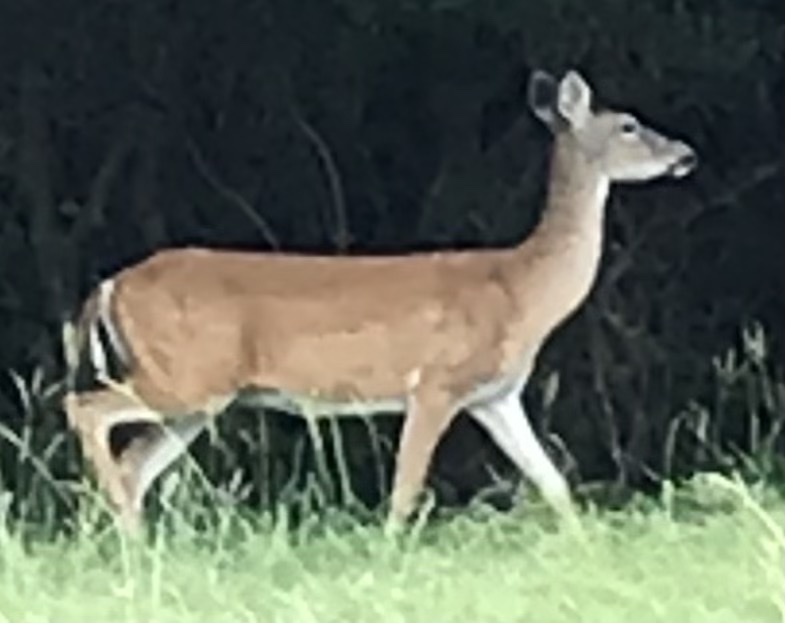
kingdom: Animalia
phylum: Chordata
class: Mammalia
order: Artiodactyla
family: Cervidae
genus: Odocoileus
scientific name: Odocoileus virginianus
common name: White-tailed deer
